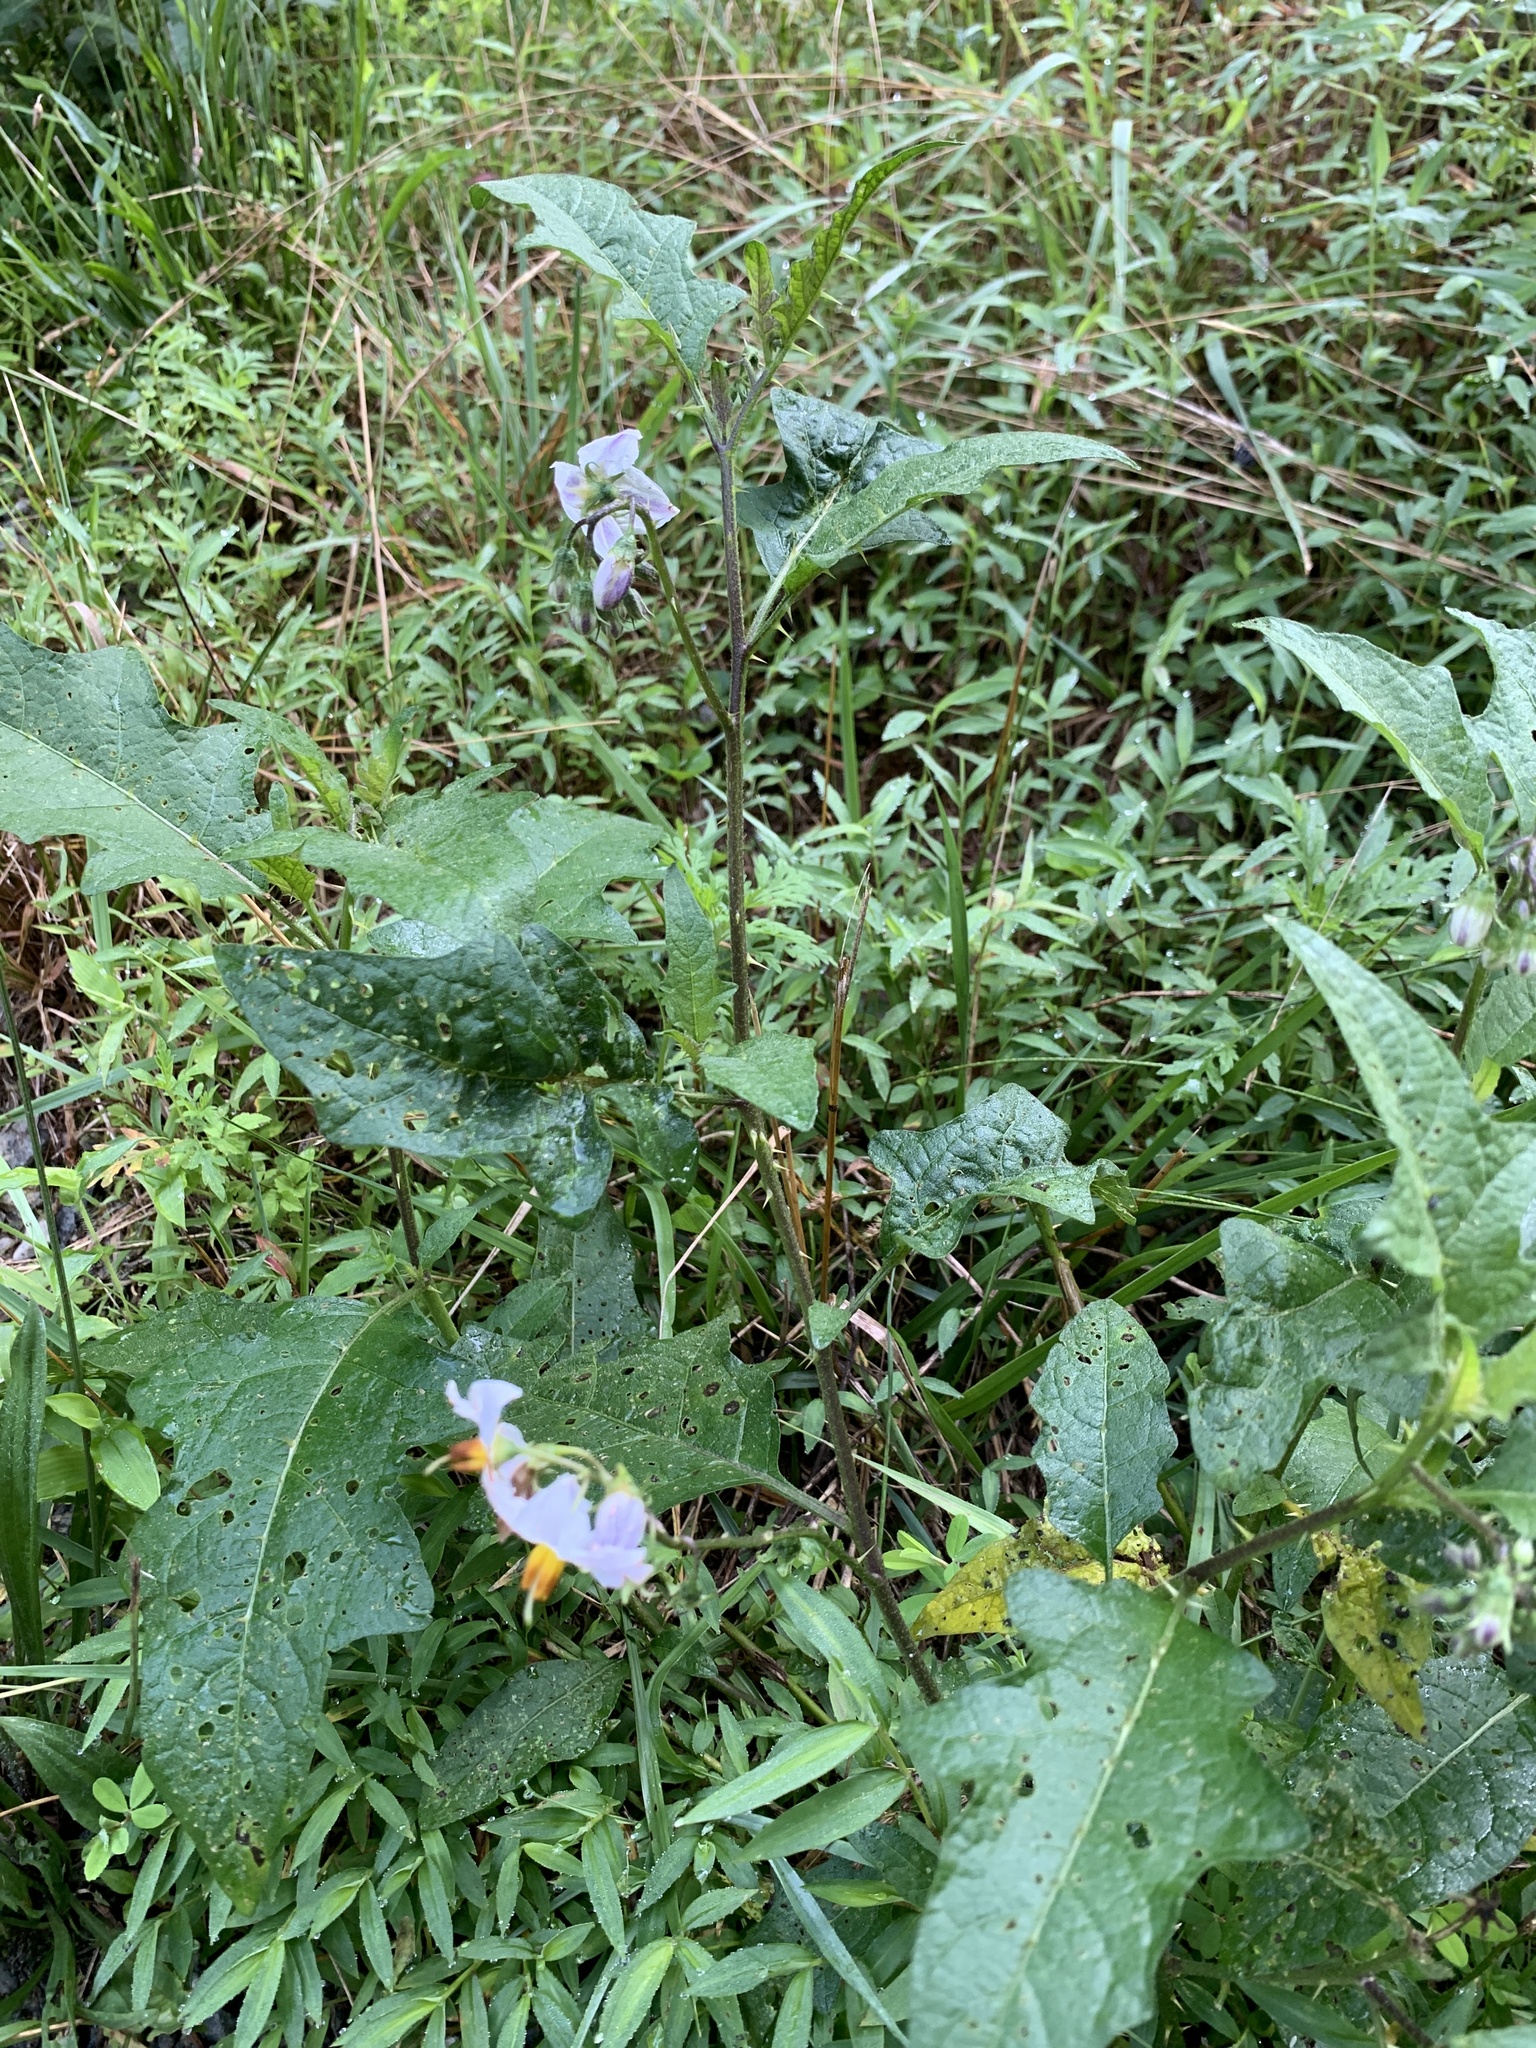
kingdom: Plantae
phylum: Tracheophyta
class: Magnoliopsida
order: Solanales
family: Solanaceae
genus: Solanum
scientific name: Solanum carolinense
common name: Horse-nettle
